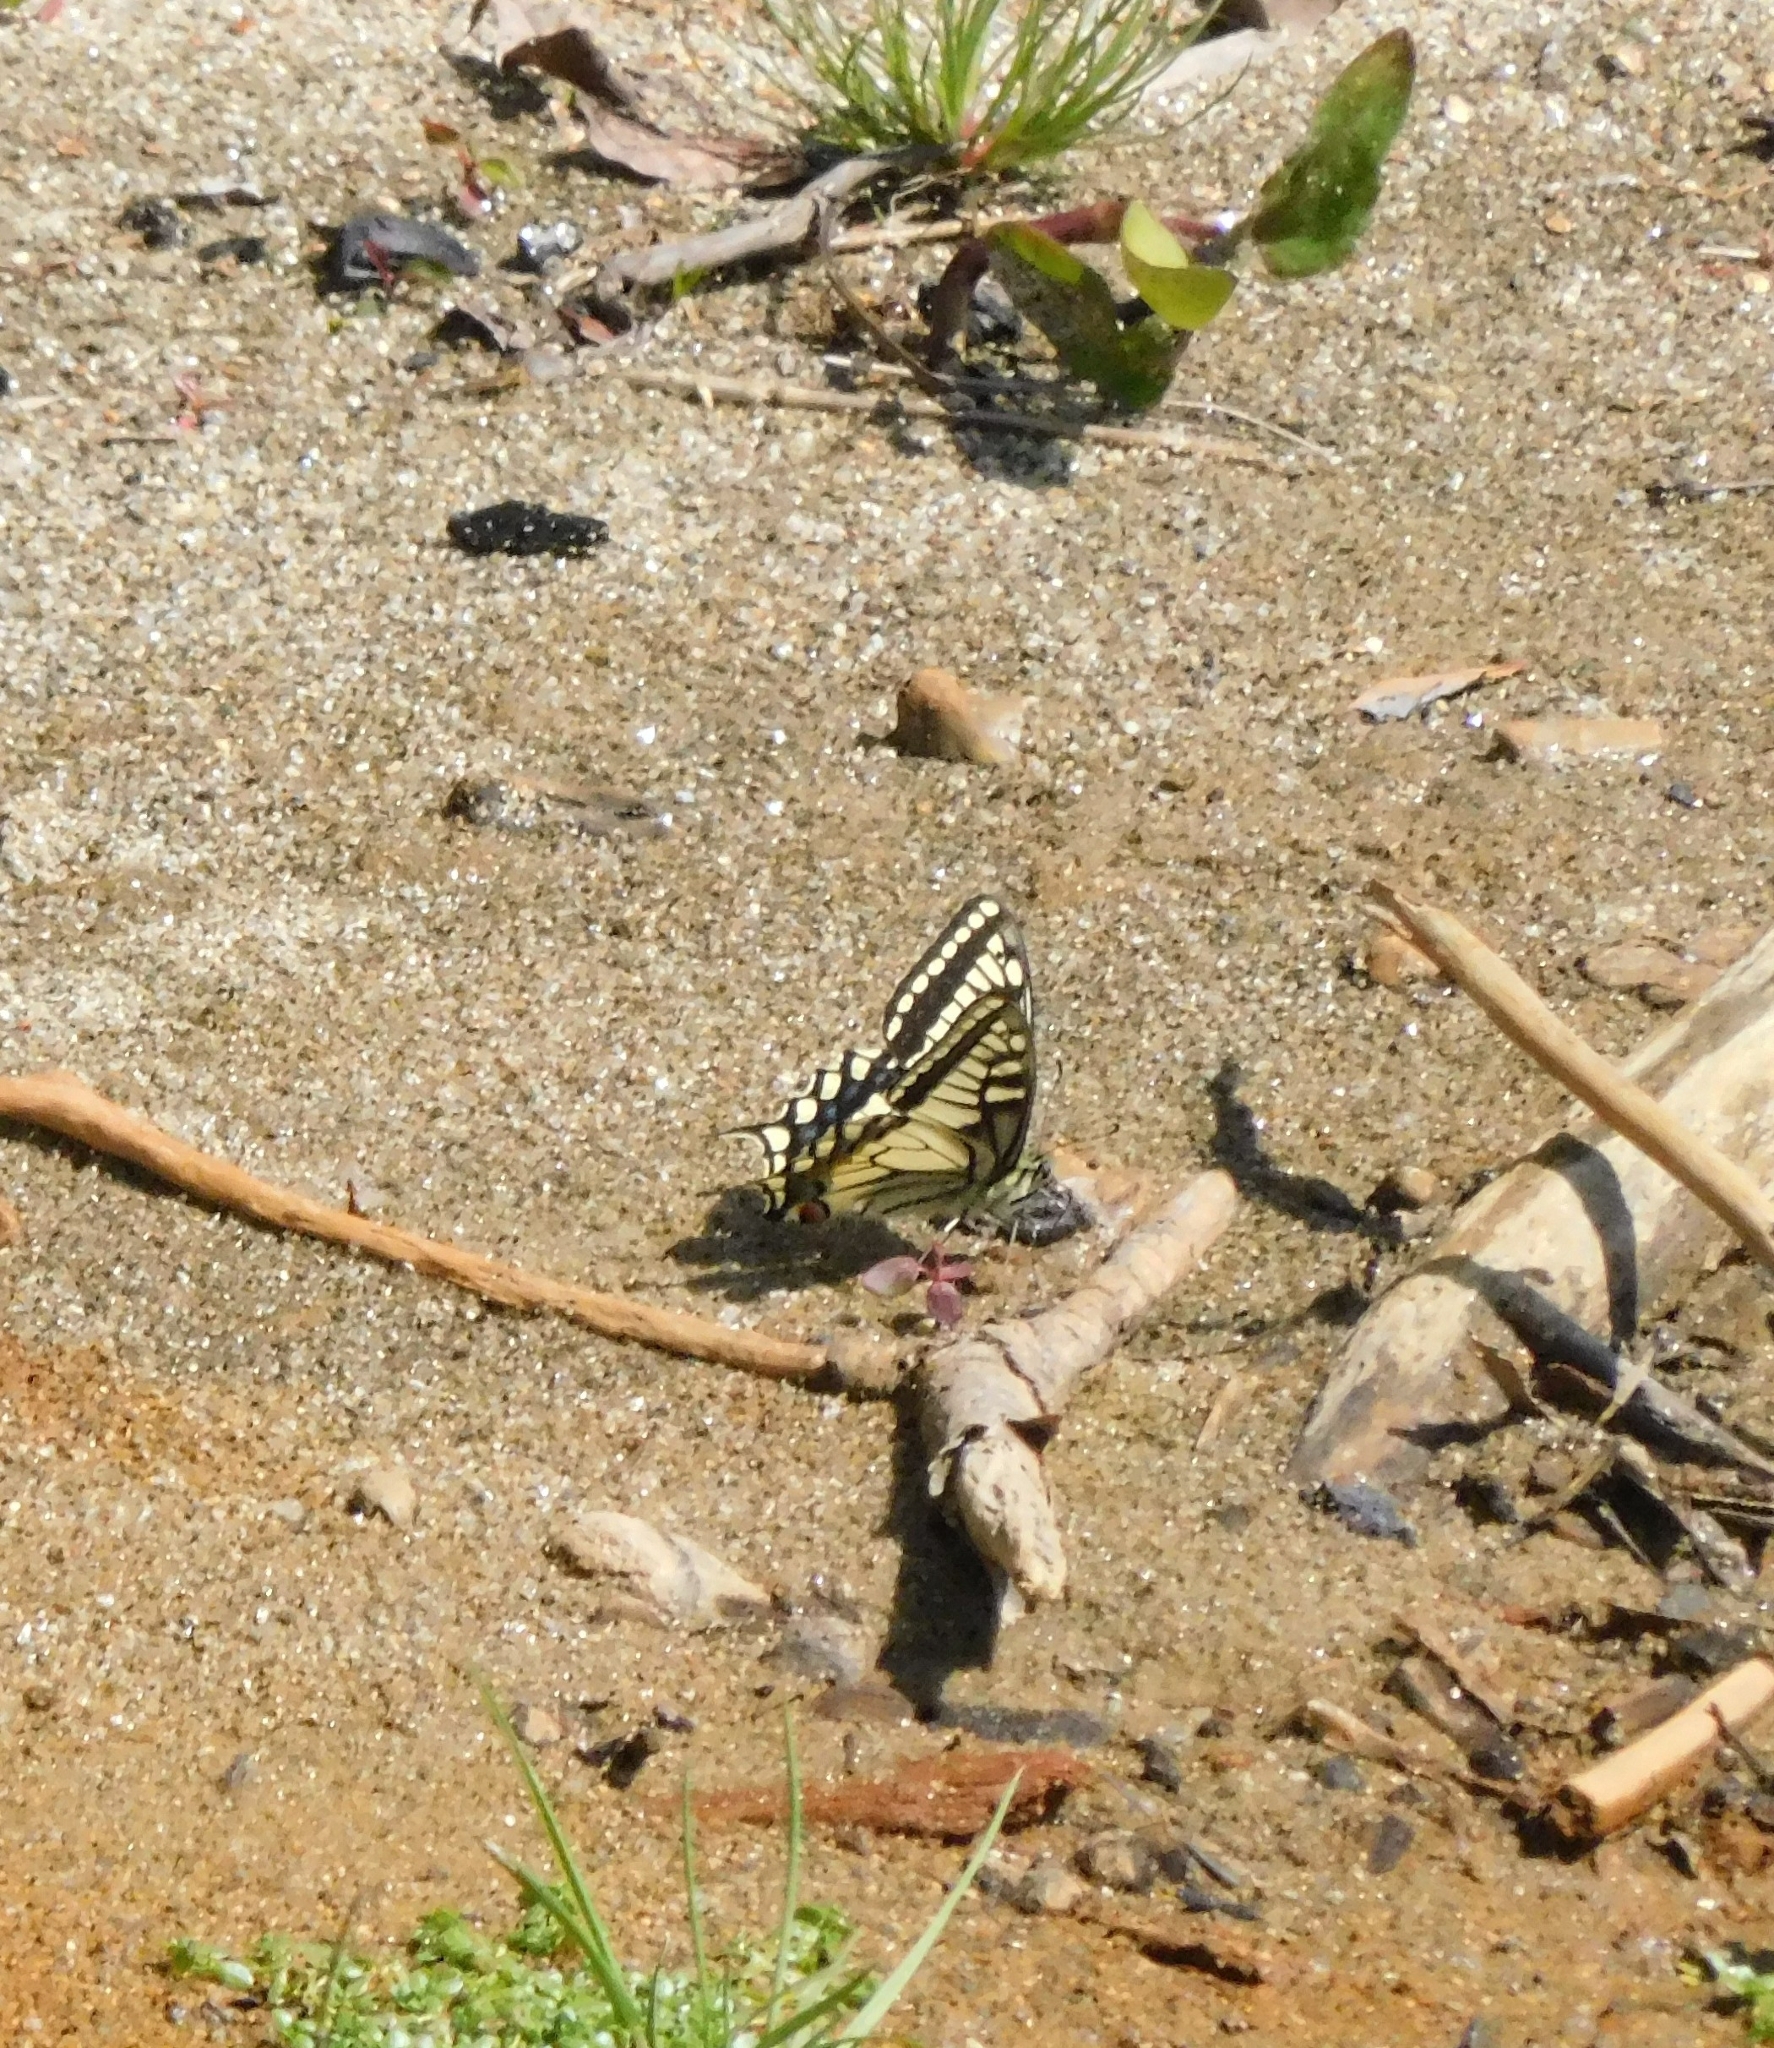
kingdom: Animalia
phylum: Arthropoda
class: Insecta
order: Lepidoptera
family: Papilionidae
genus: Papilio
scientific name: Papilio machaon
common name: Swallowtail
